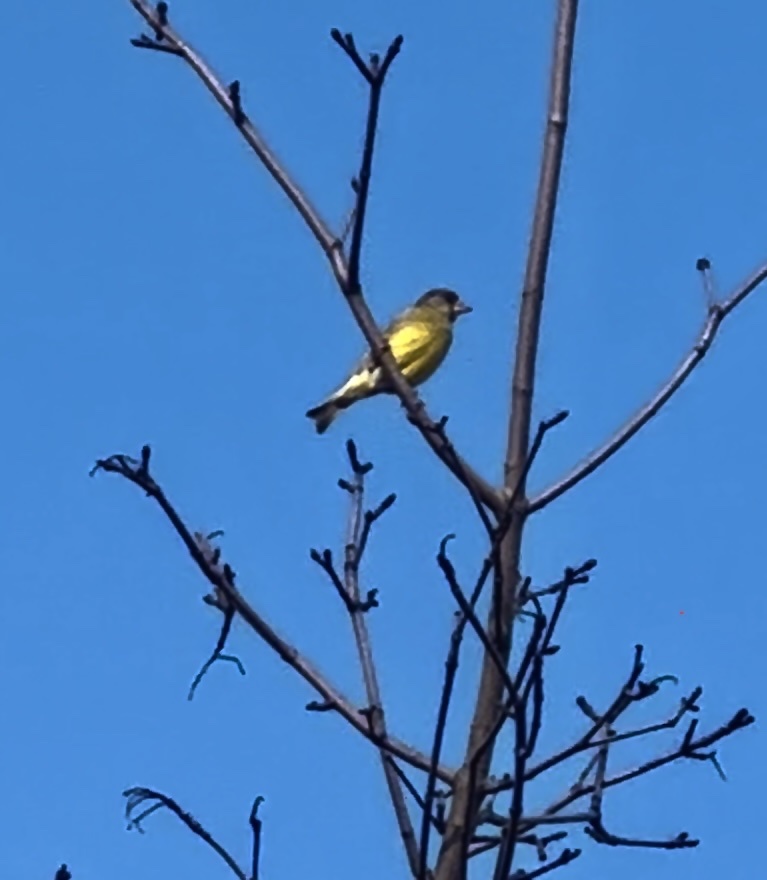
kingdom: Plantae
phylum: Tracheophyta
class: Liliopsida
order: Poales
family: Poaceae
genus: Chloris
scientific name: Chloris chloris
